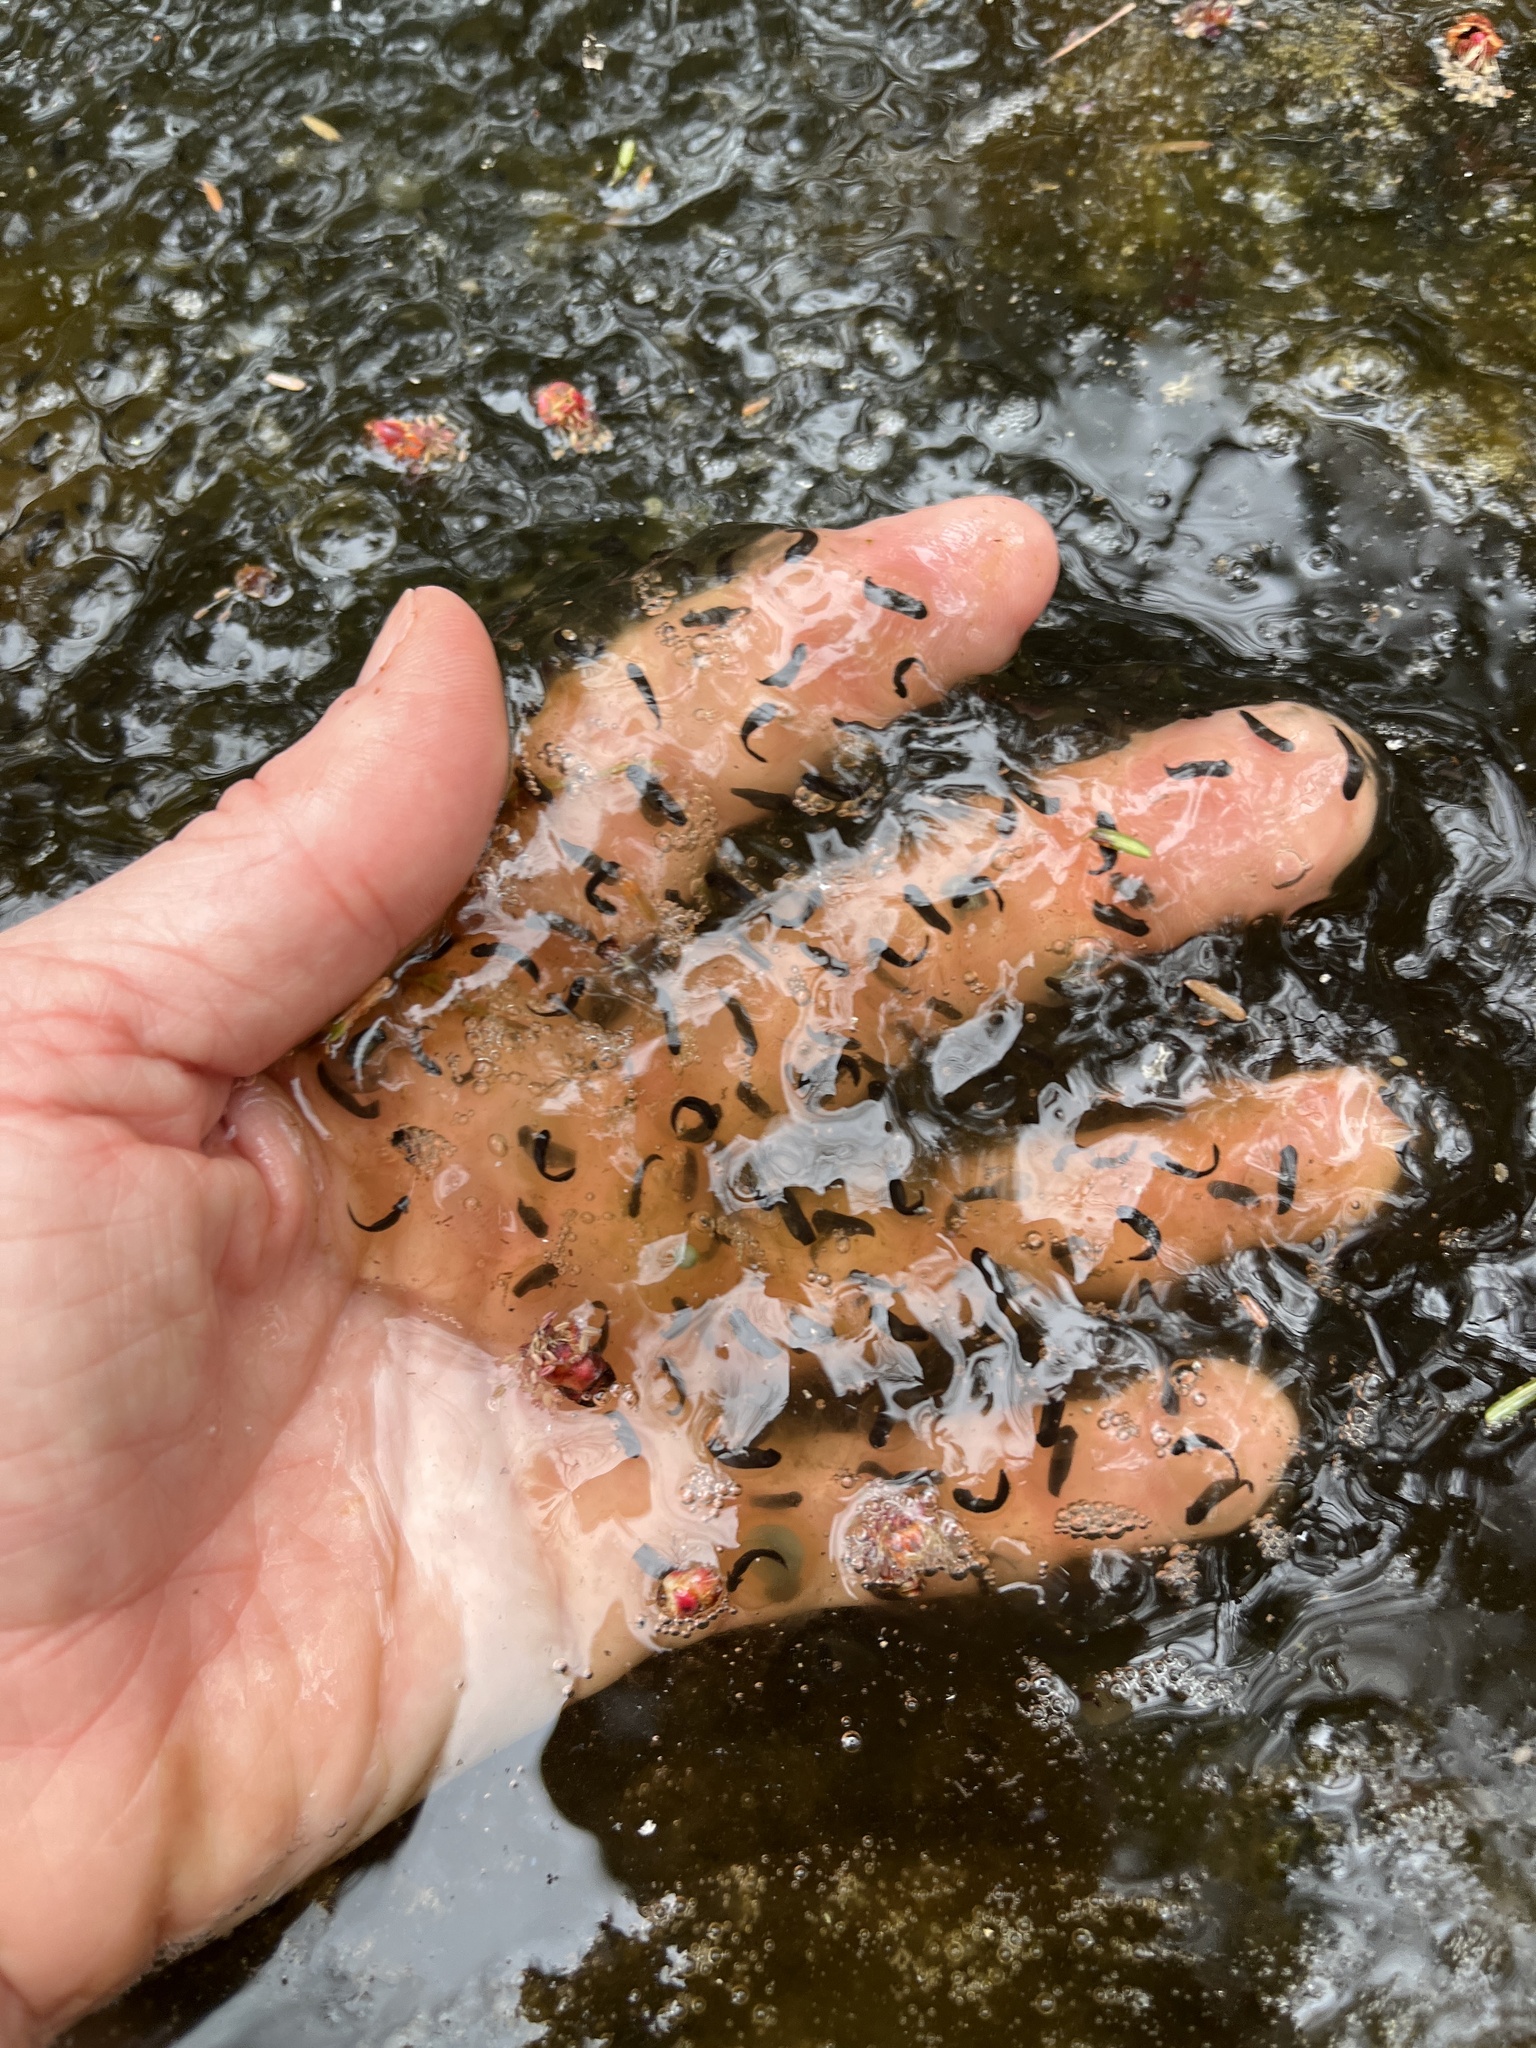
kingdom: Animalia
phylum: Chordata
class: Amphibia
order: Anura
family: Ranidae
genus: Lithobates
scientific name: Lithobates sylvaticus
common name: Wood frog
